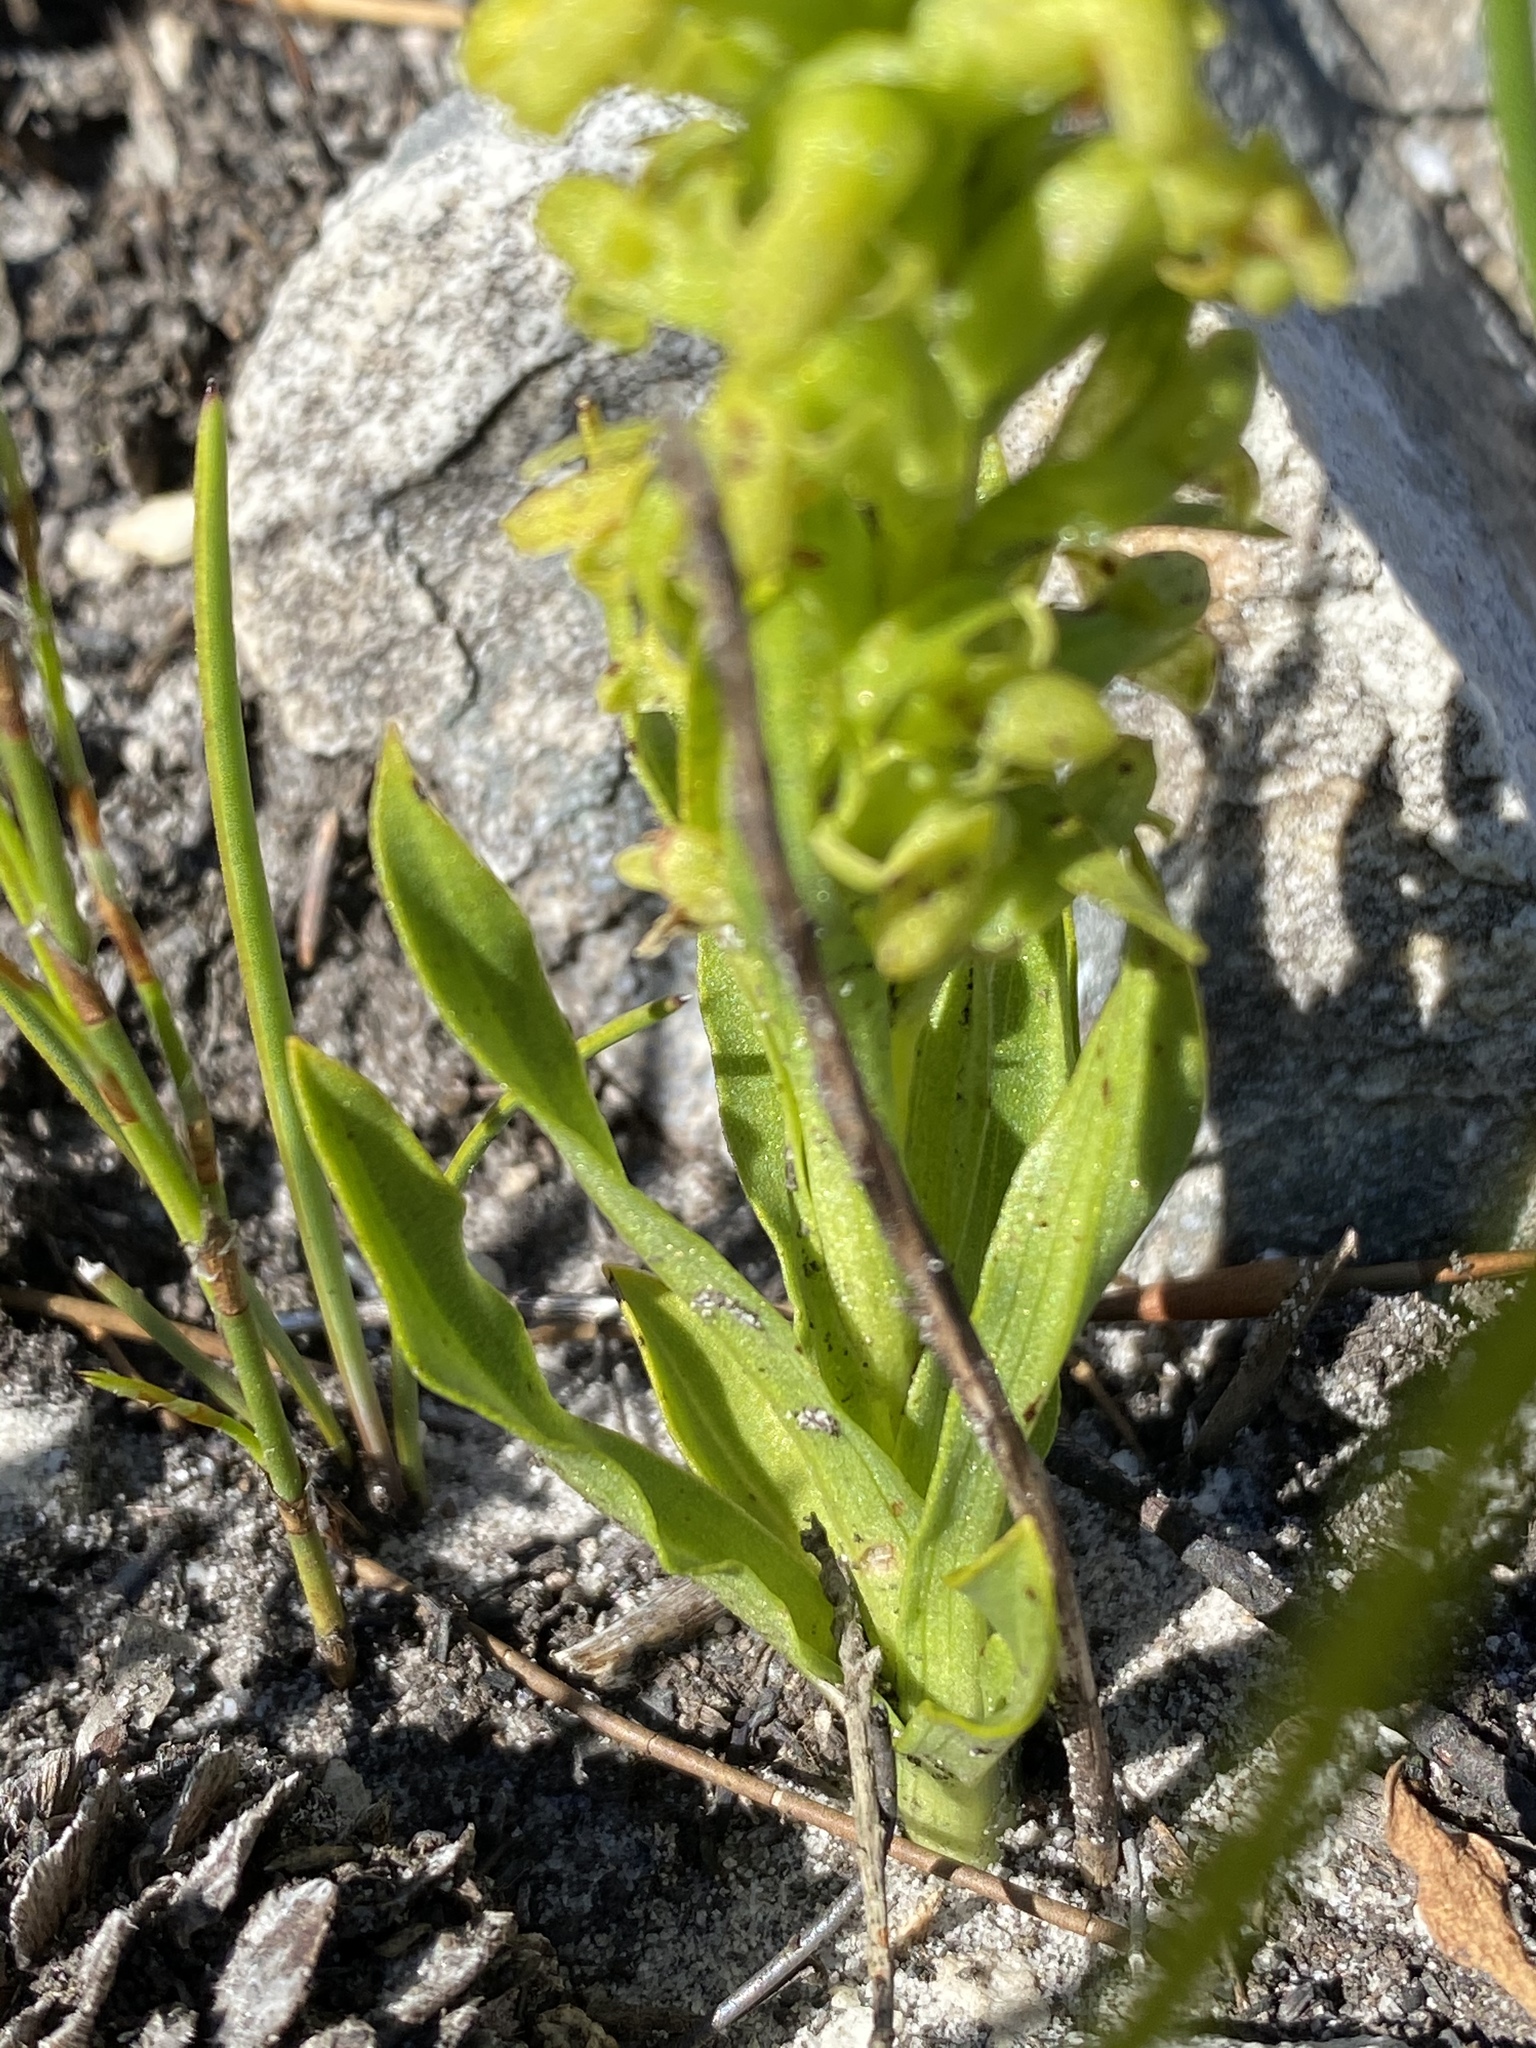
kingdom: Plantae
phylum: Tracheophyta
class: Liliopsida
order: Asparagales
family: Orchidaceae
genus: Disa
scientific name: Disa cylindrica
